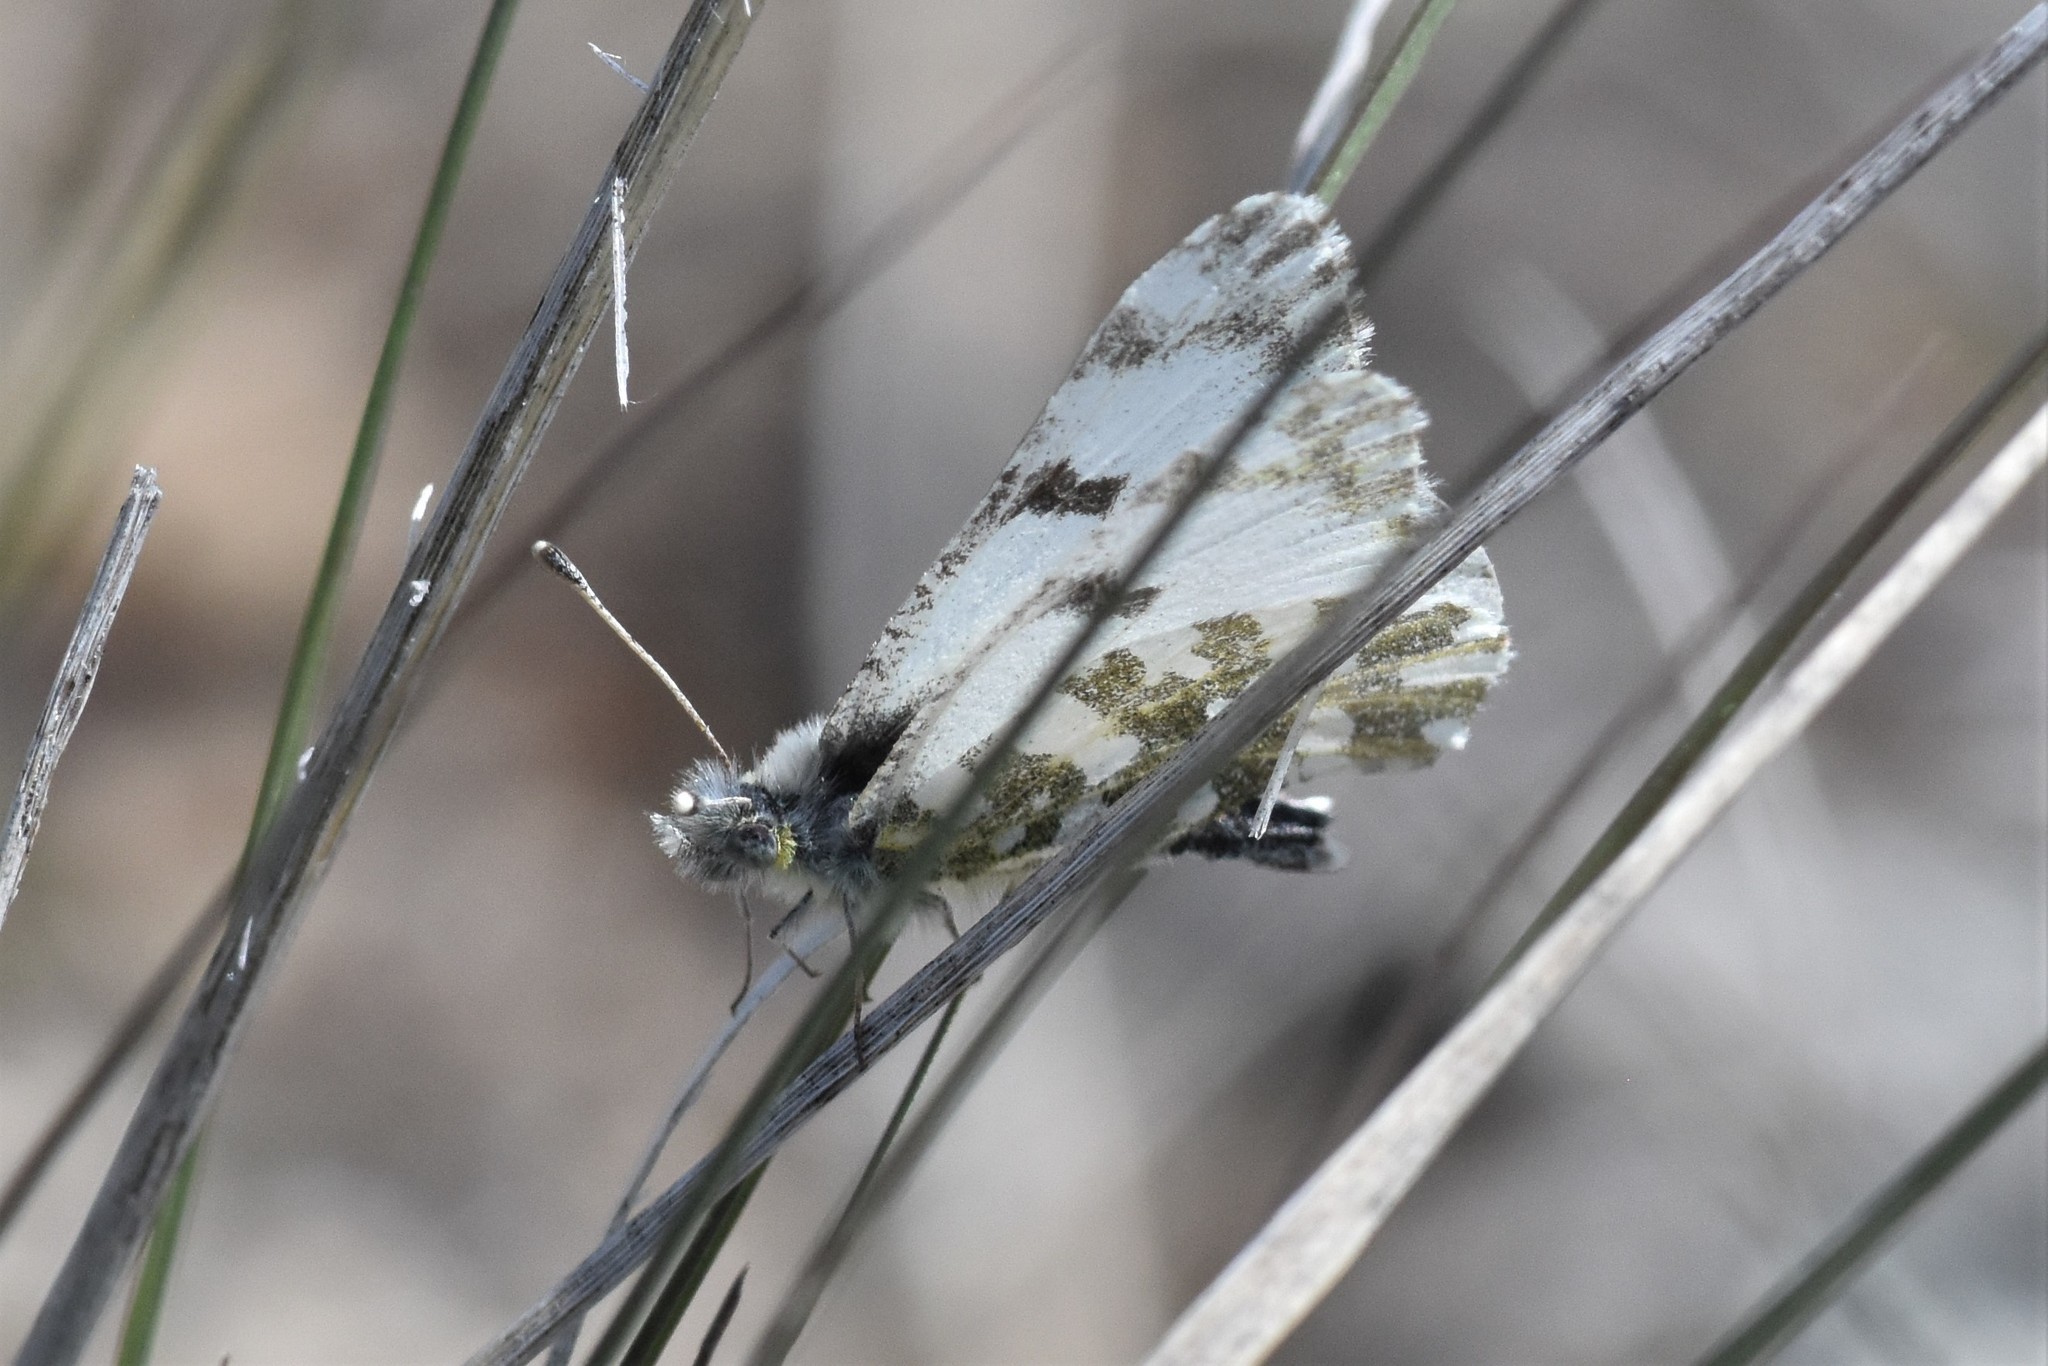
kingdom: Animalia
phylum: Arthropoda
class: Insecta
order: Lepidoptera
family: Pieridae
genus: Euchloe
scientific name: Euchloe ausonides
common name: Creamy marblewing
